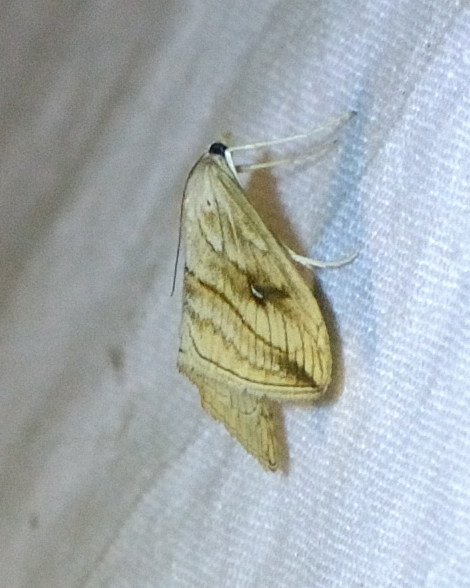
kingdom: Animalia
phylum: Arthropoda
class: Insecta
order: Lepidoptera
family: Crambidae
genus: Evergestis
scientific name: Evergestis forficalis
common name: Garden pebble
